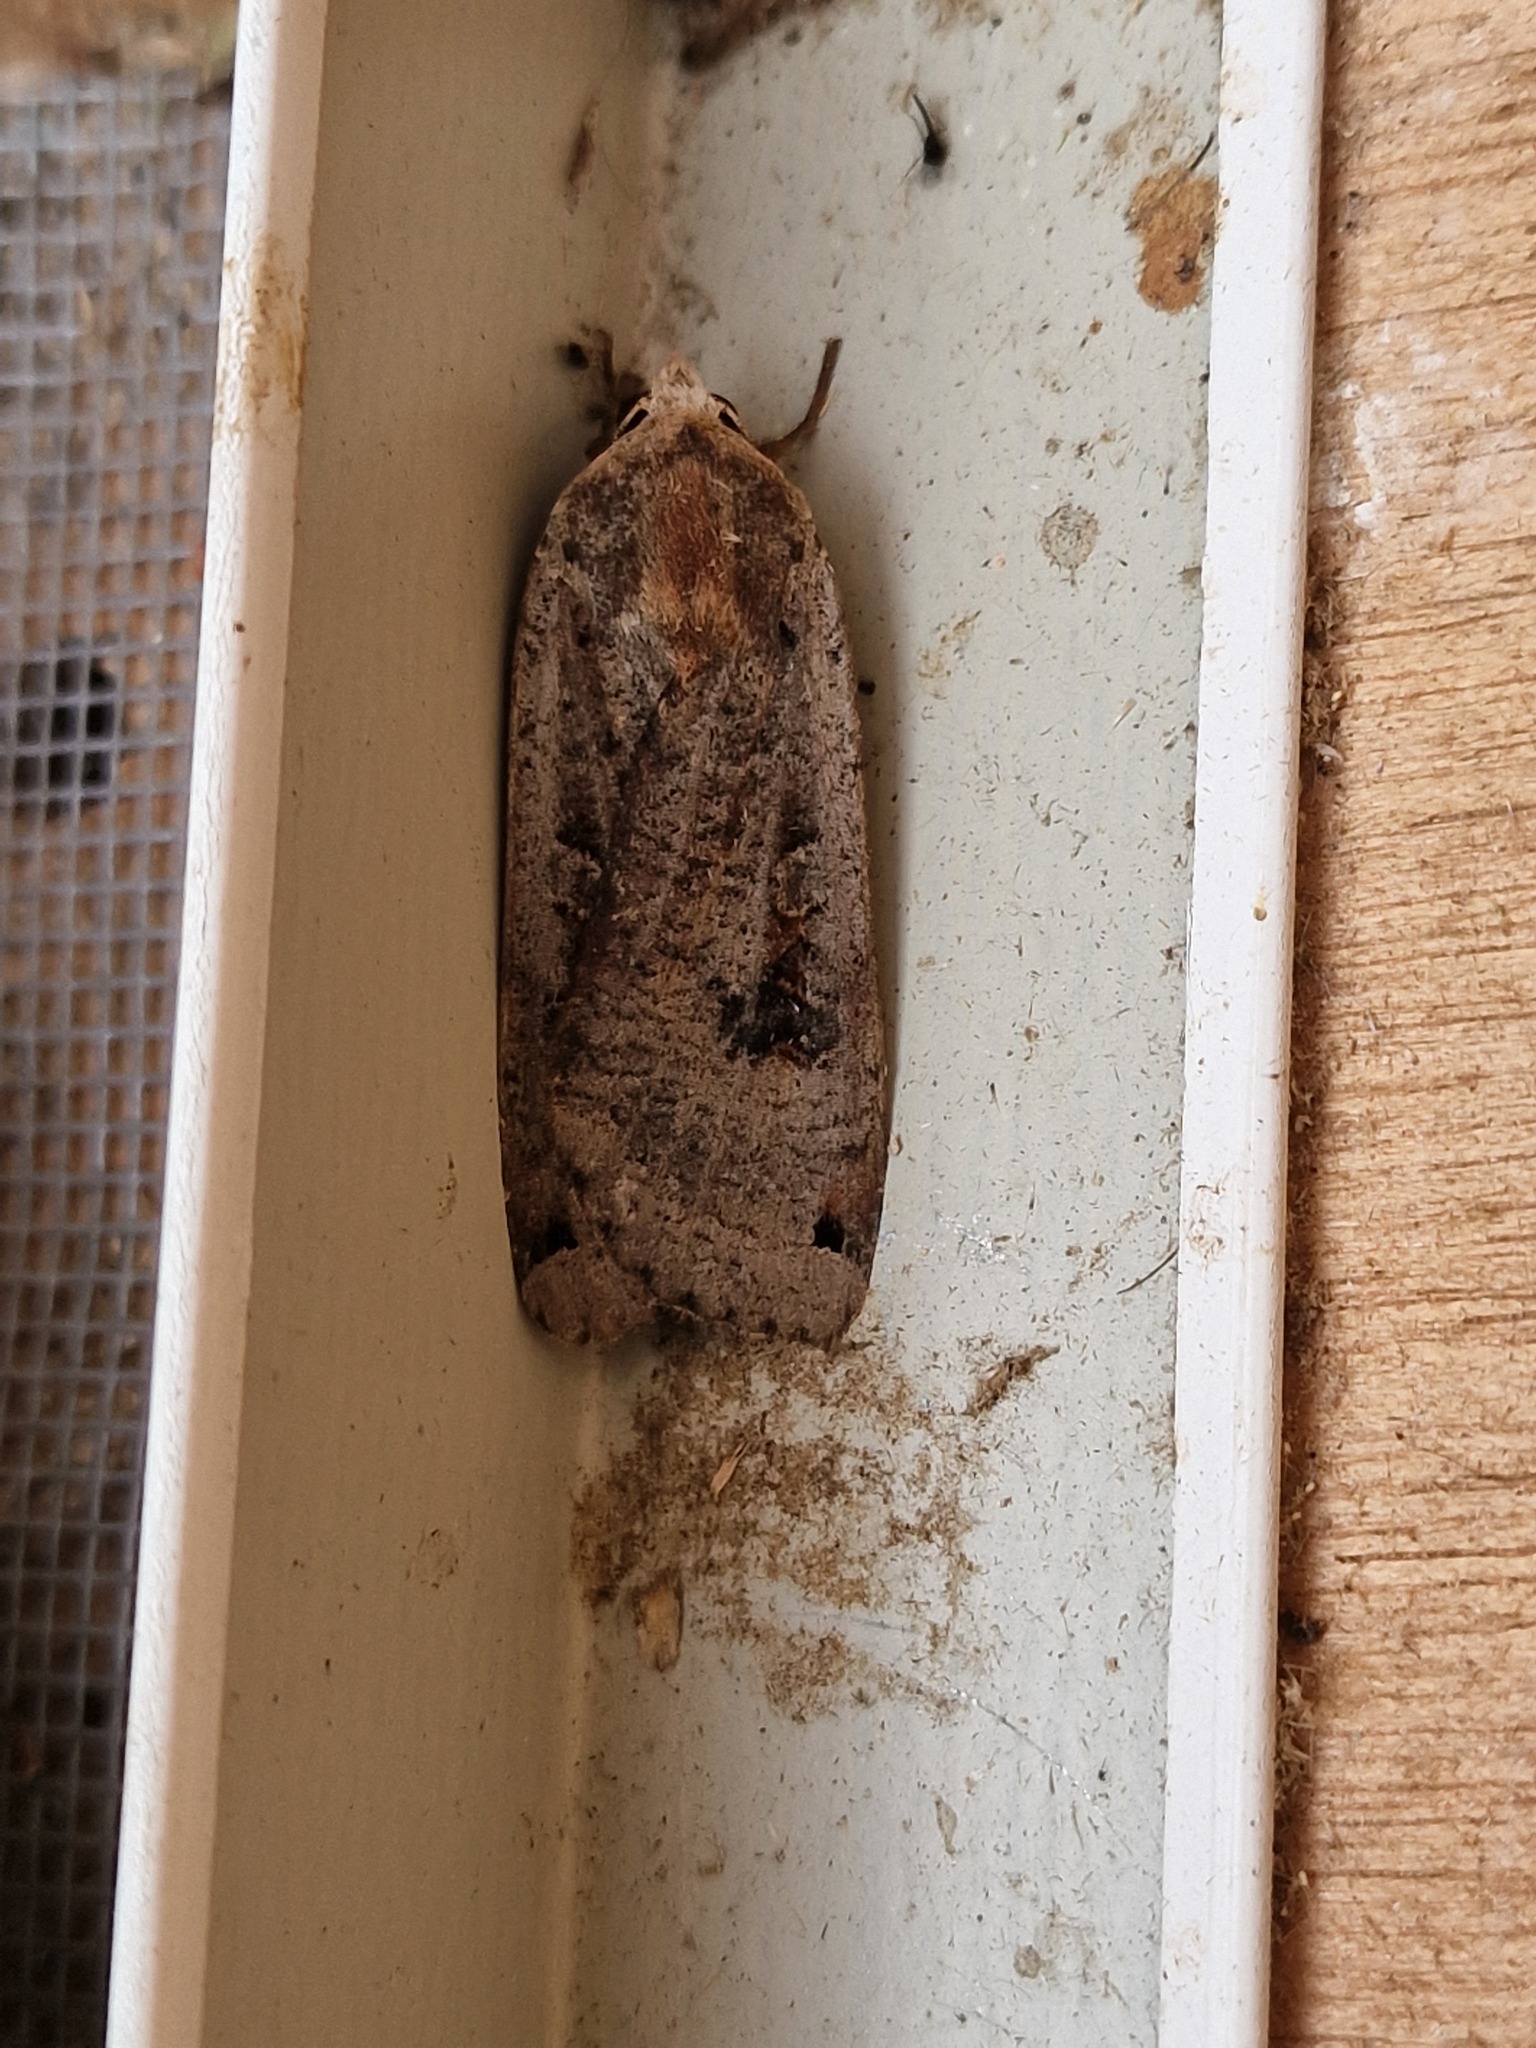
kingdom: Animalia
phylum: Arthropoda
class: Insecta
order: Lepidoptera
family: Noctuidae
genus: Noctua
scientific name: Noctua pronuba
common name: Large yellow underwing
